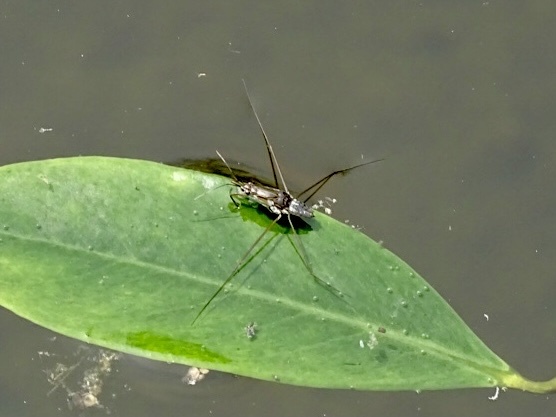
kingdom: Animalia
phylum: Arthropoda
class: Insecta
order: Hemiptera
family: Gerridae
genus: Limnogonus
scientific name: Limnogonus fossarum
